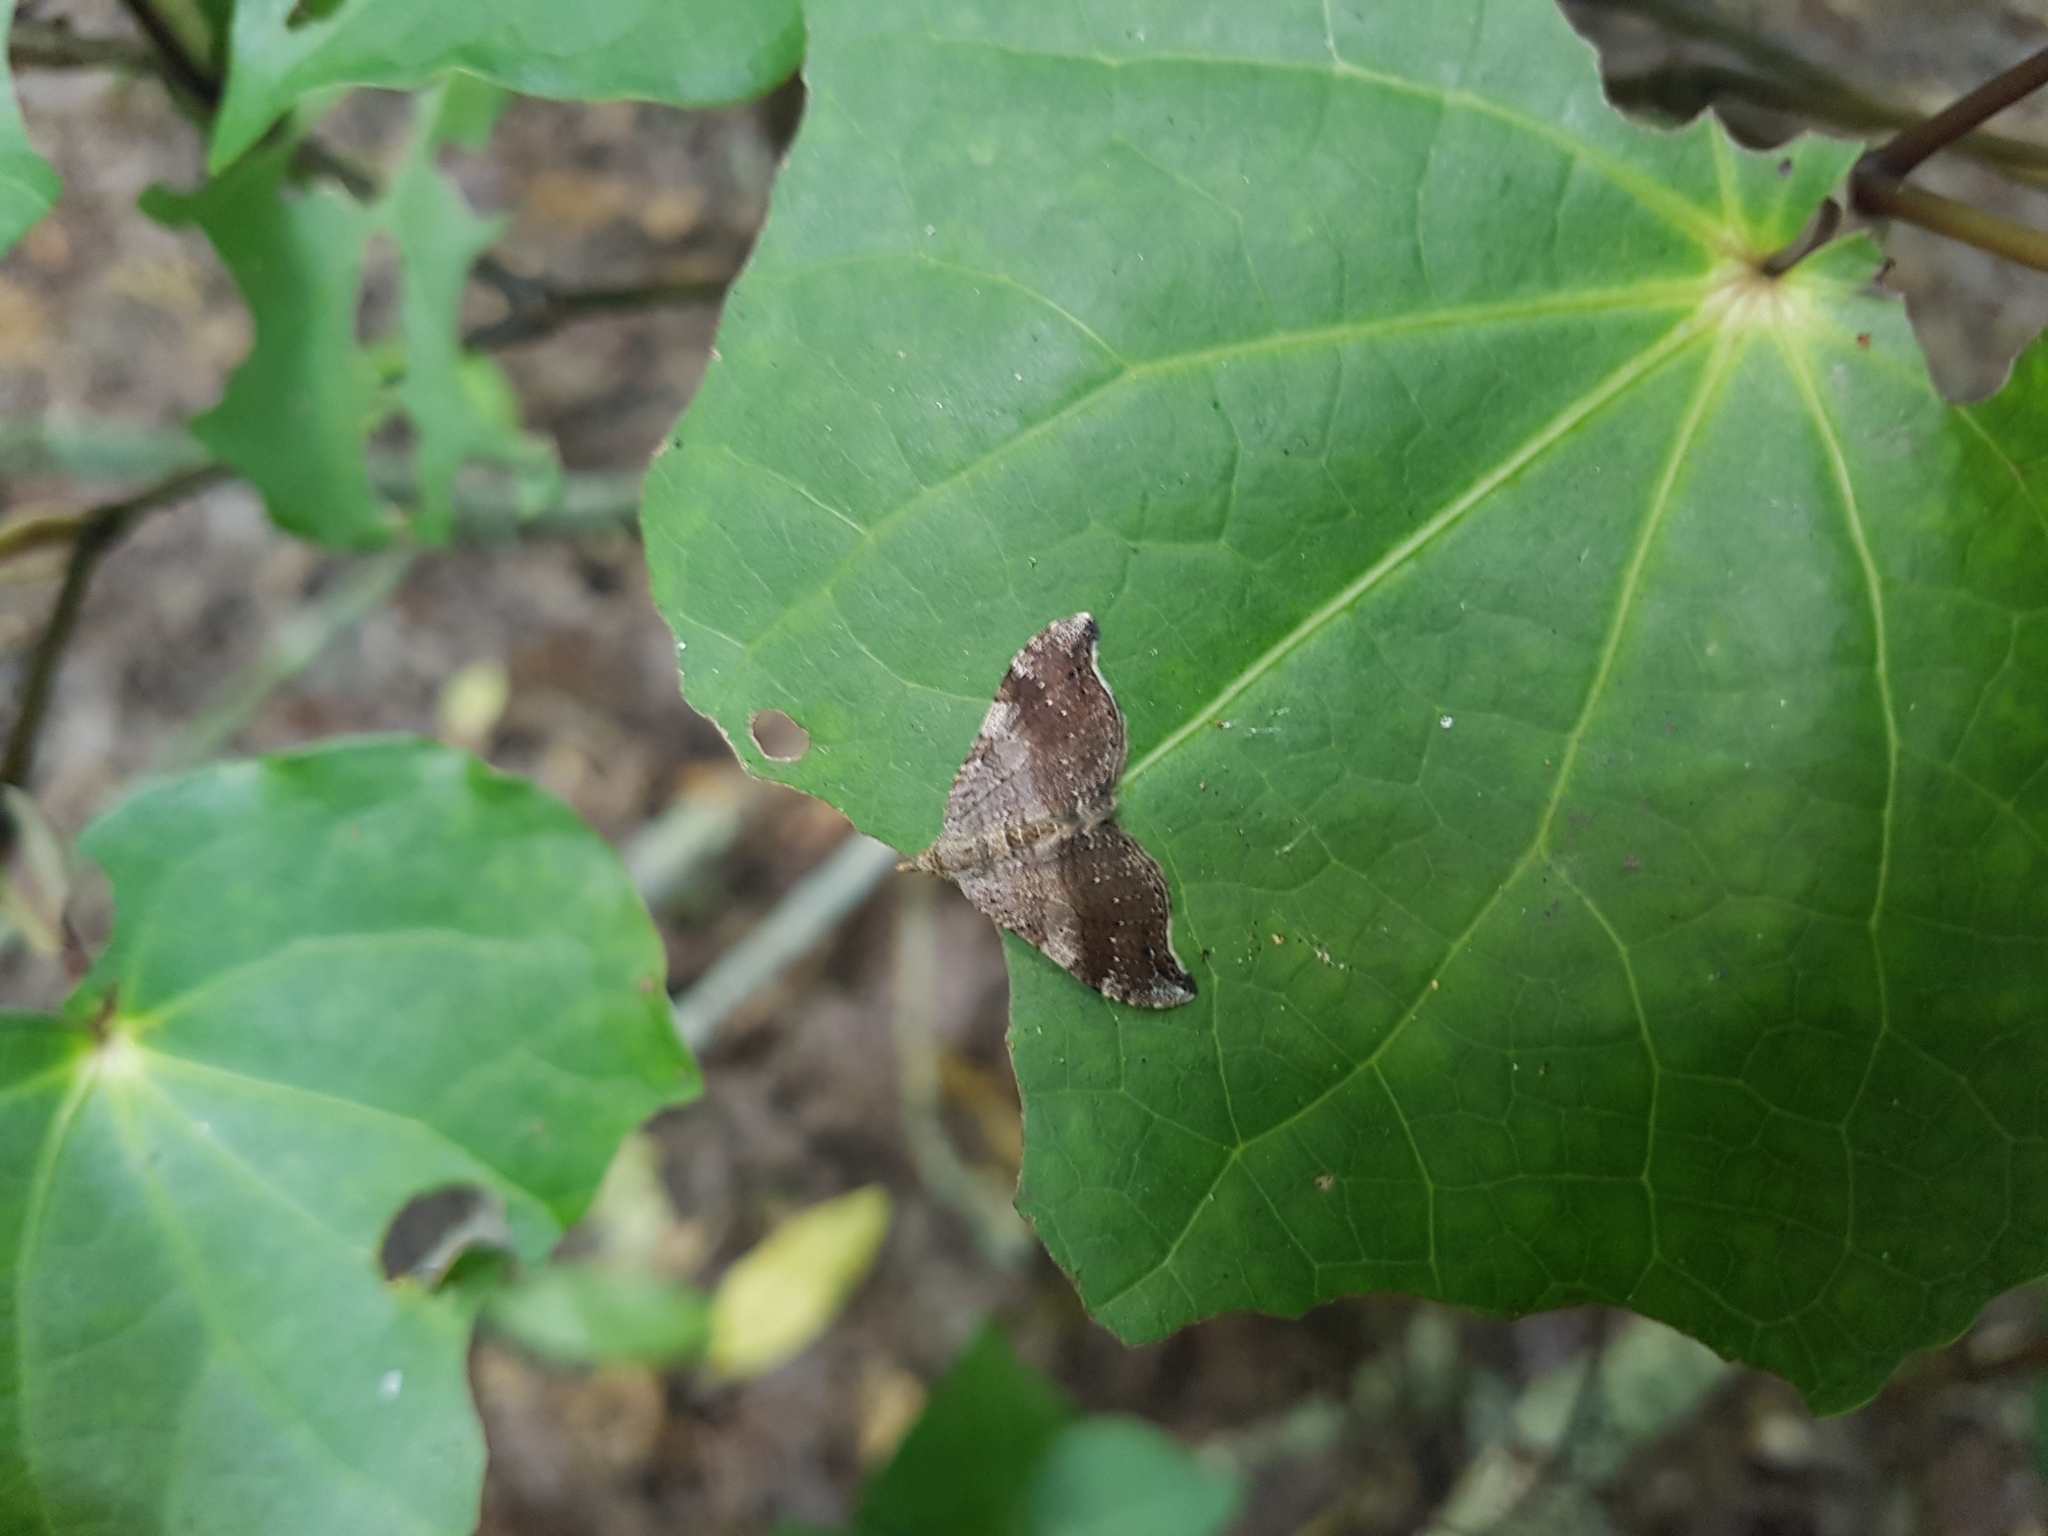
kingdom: Animalia
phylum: Arthropoda
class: Insecta
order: Lepidoptera
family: Geometridae
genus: Homodotis
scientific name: Homodotis megaspilata
